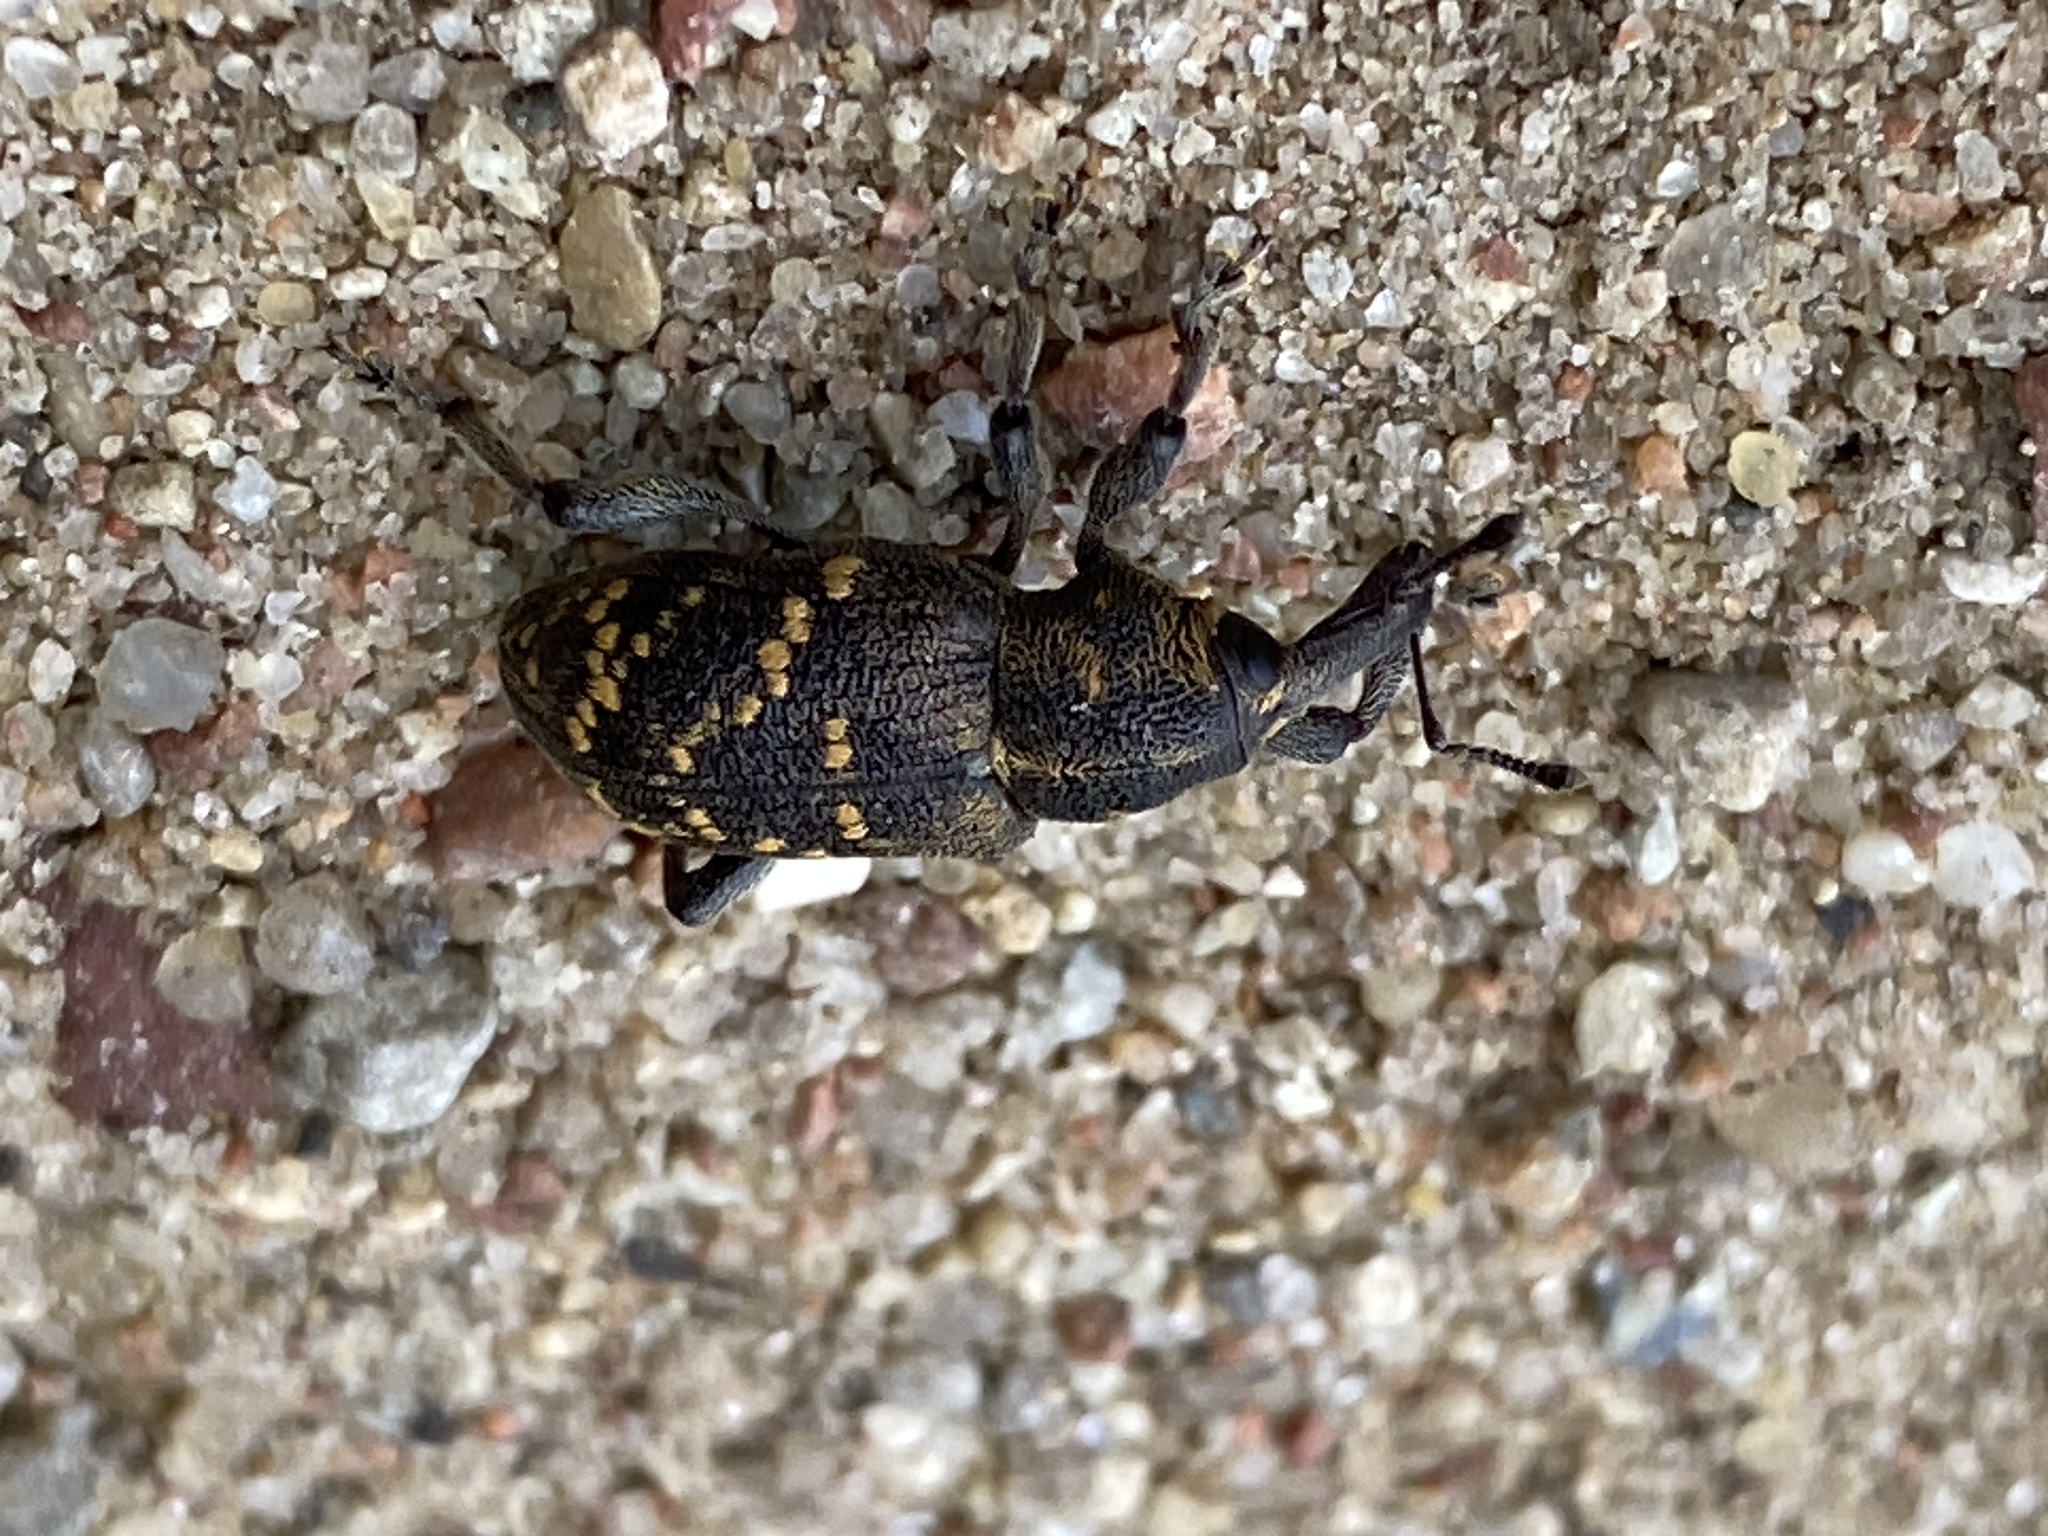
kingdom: Animalia
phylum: Arthropoda
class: Insecta
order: Coleoptera
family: Curculionidae
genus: Hylobius
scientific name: Hylobius abietis
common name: Large pine weevil
